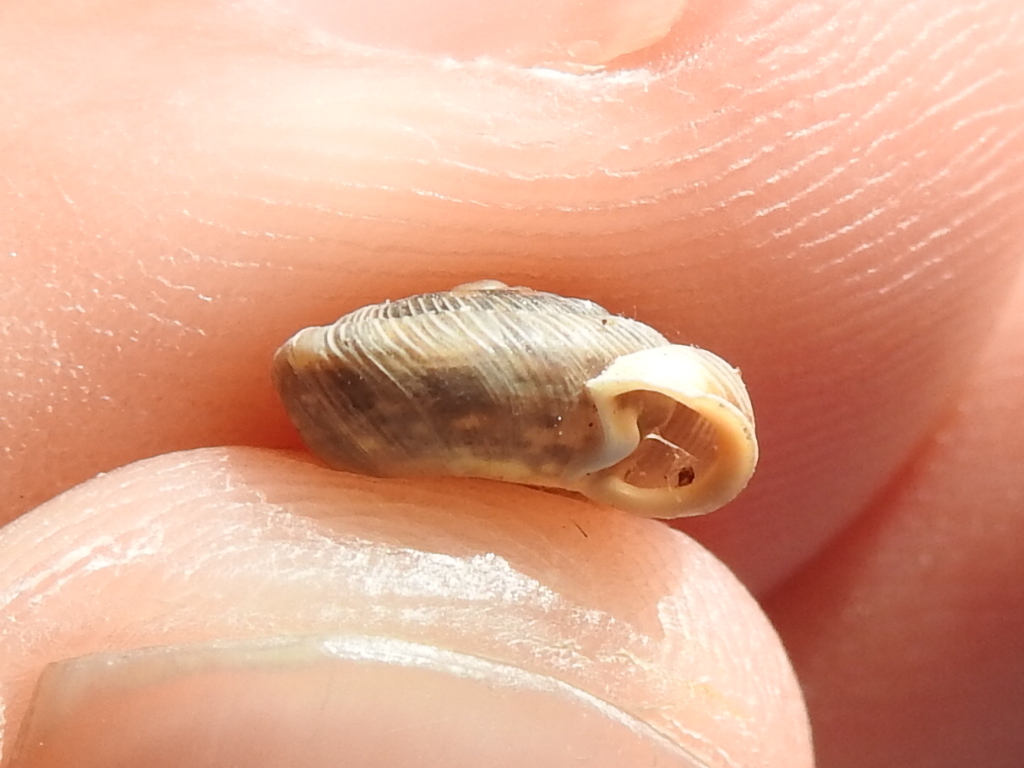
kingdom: Animalia
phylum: Mollusca
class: Gastropoda
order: Stylommatophora
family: Polygyridae
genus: Polygyra
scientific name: Polygyra cereolus
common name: Southern flatcone snail
